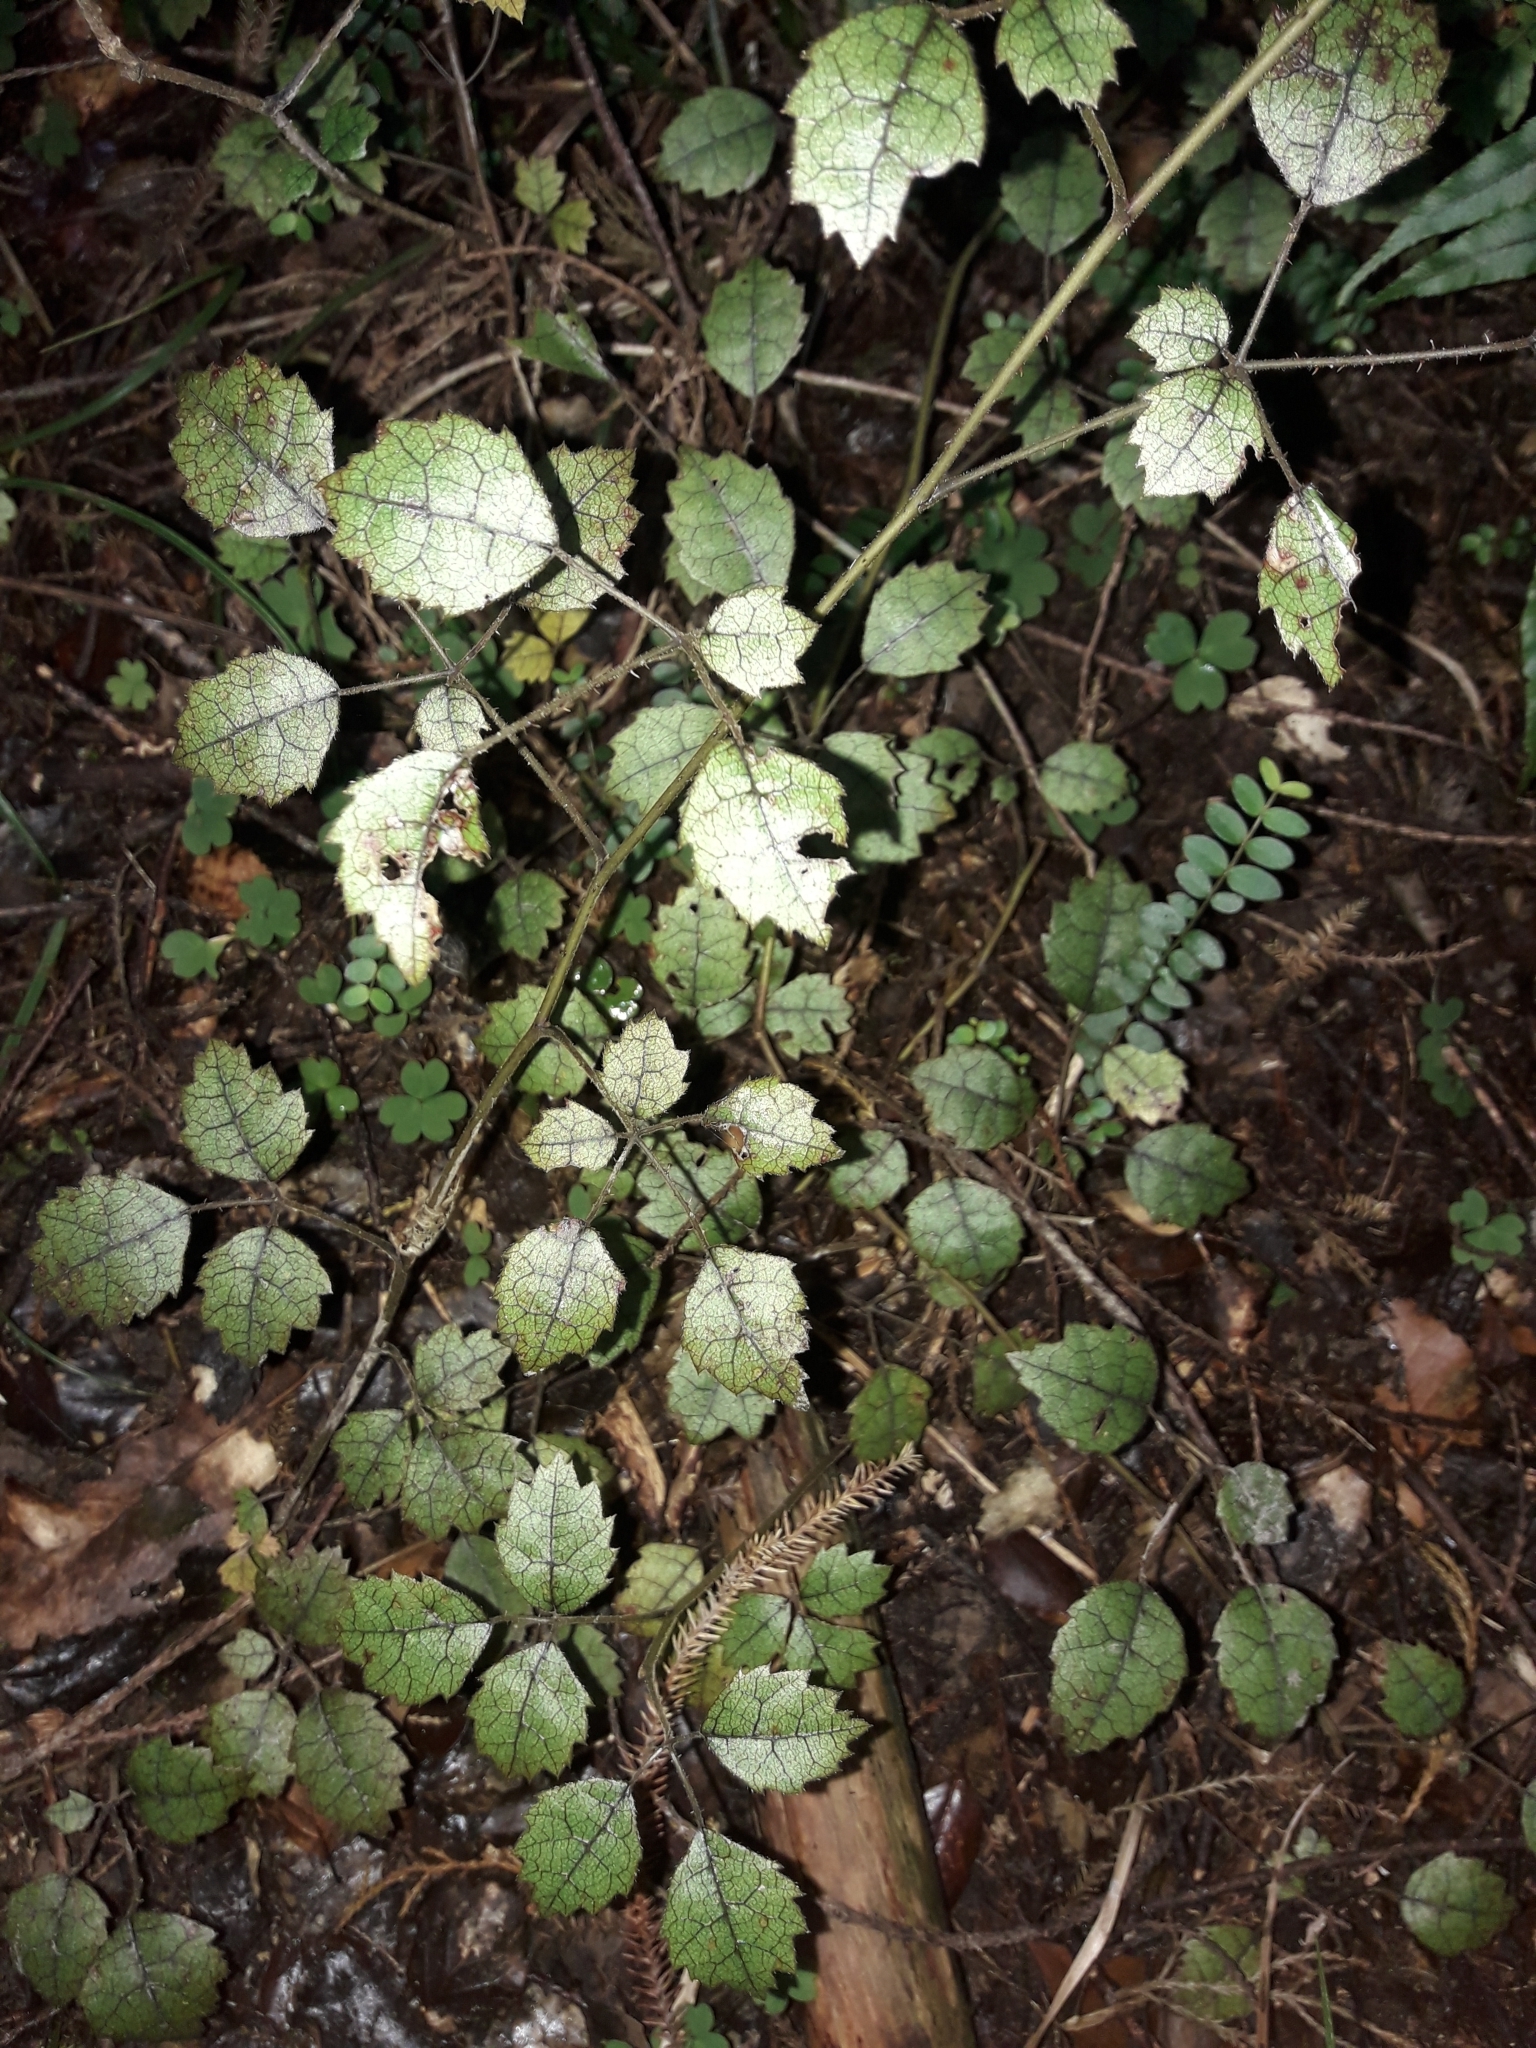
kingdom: Plantae
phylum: Tracheophyta
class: Magnoliopsida
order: Rosales
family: Rosaceae
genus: Rubus
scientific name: Rubus australis
